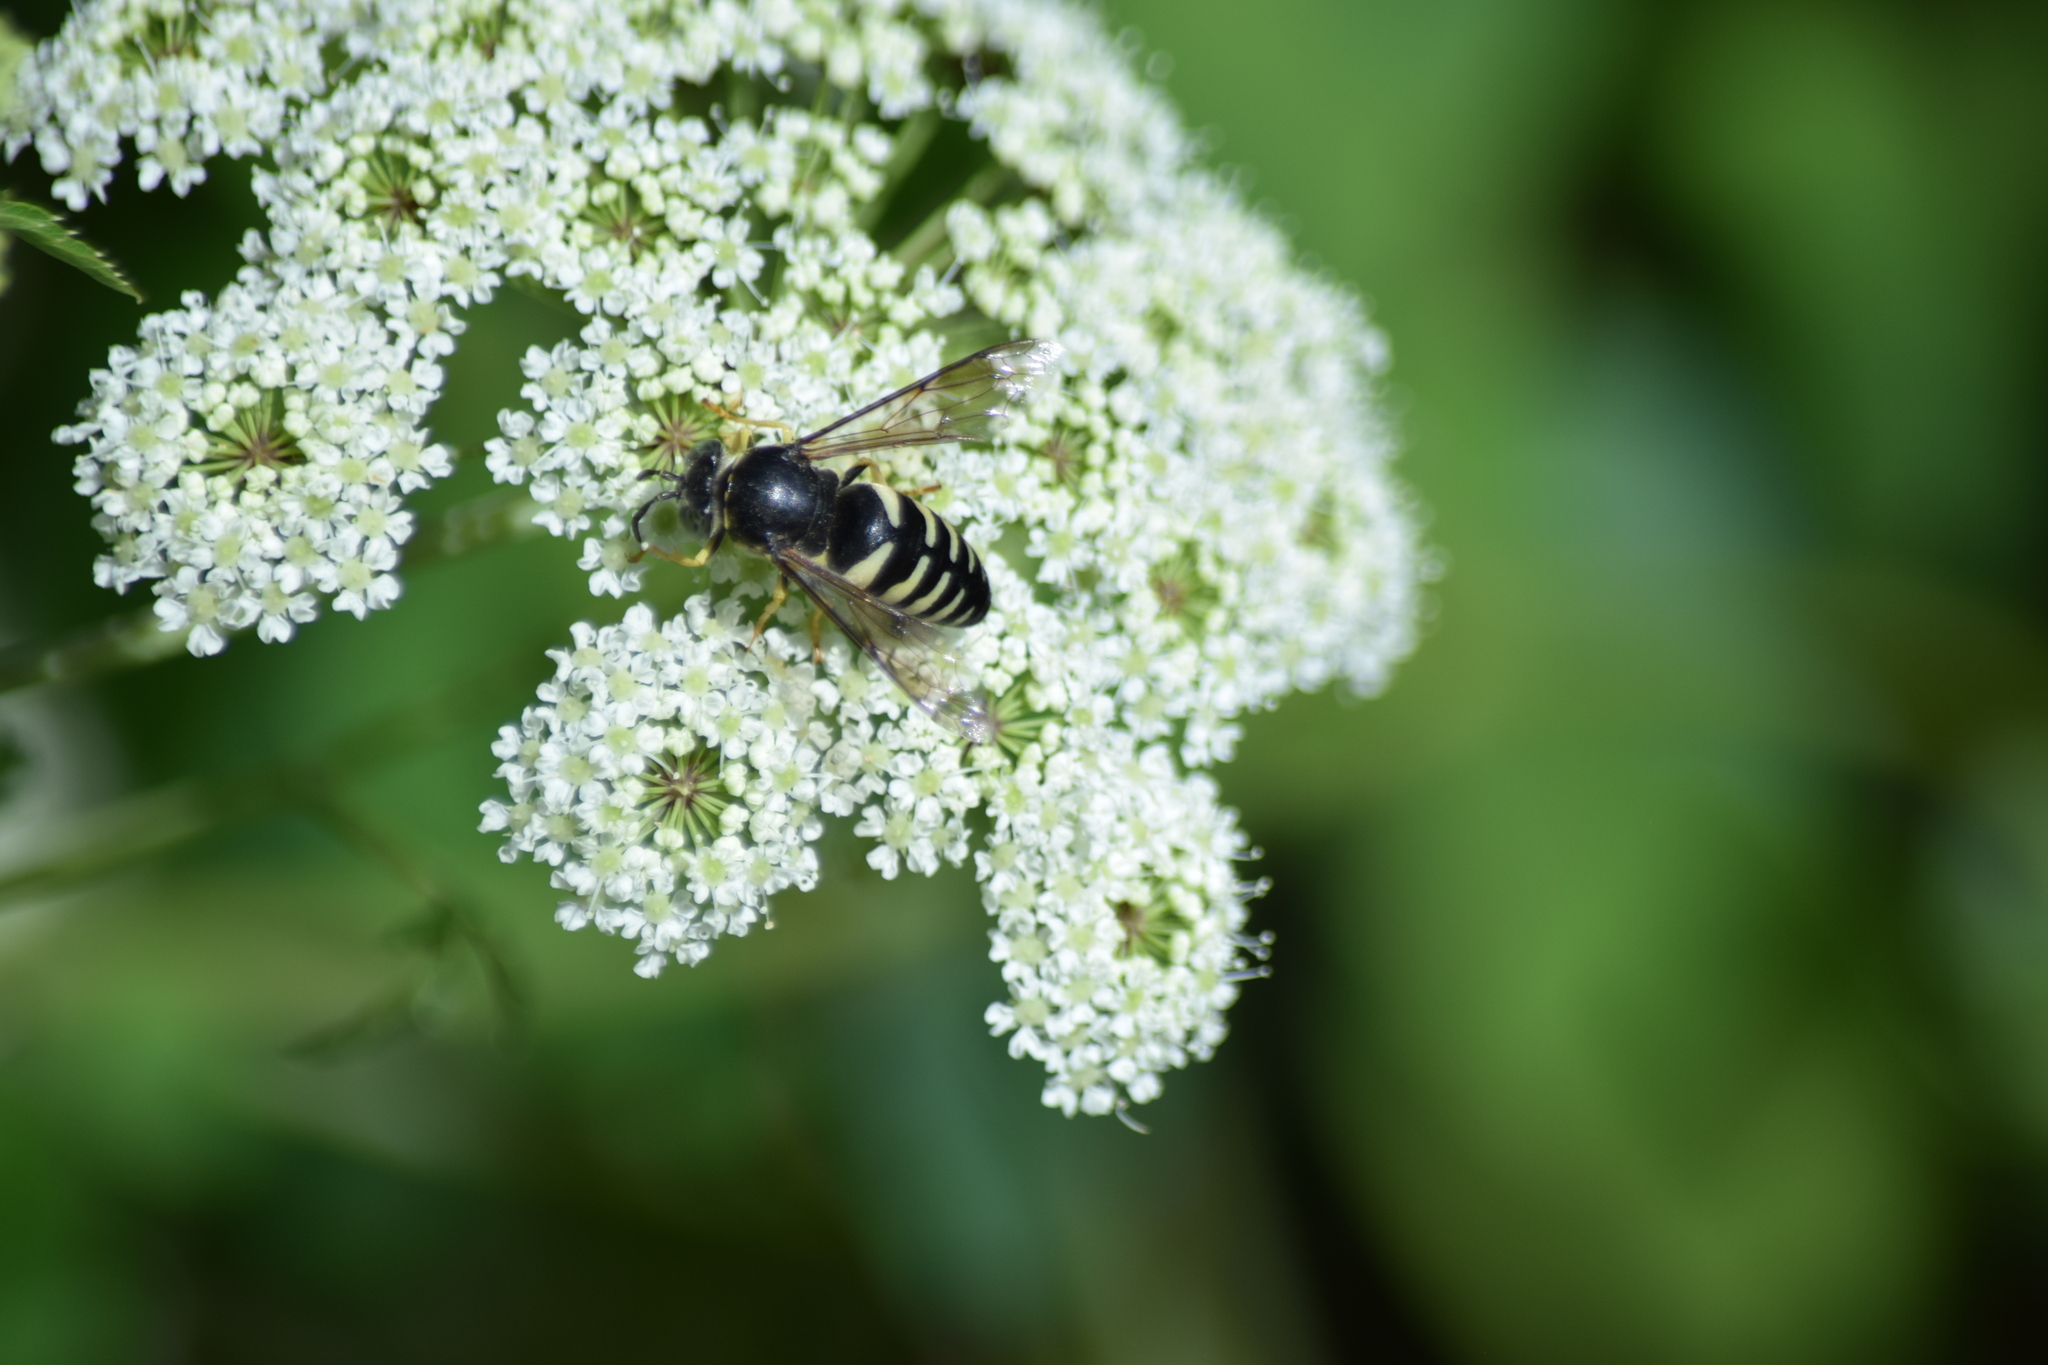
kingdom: Animalia
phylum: Arthropoda
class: Insecta
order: Hymenoptera
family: Crabronidae
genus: Bicyrtes
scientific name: Bicyrtes quadrifasciatus
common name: Four-banded stink bug hunter wasp
